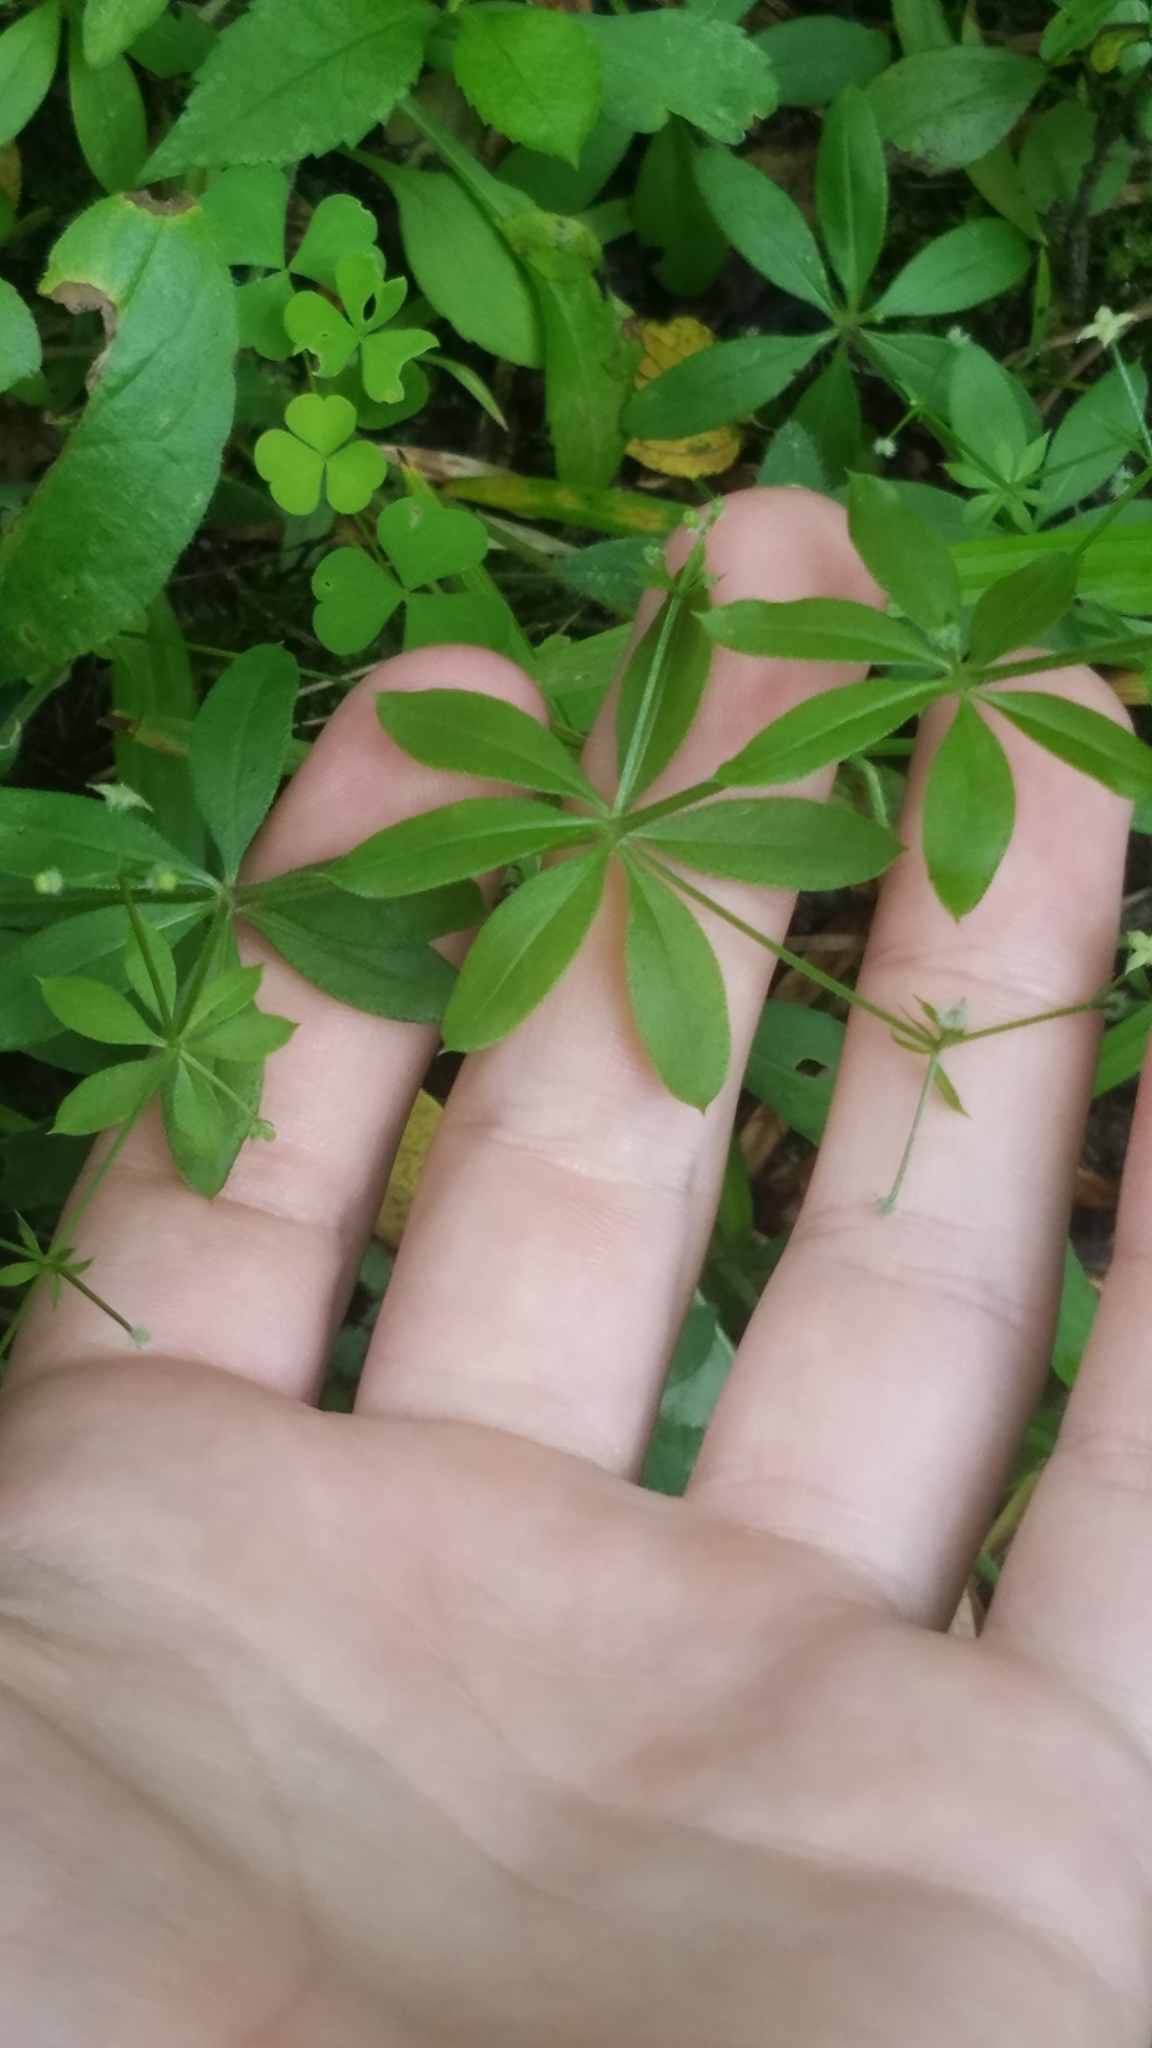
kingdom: Plantae
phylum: Tracheophyta
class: Magnoliopsida
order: Gentianales
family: Rubiaceae
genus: Galium
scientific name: Galium triflorum
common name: Fragrant bedstraw
